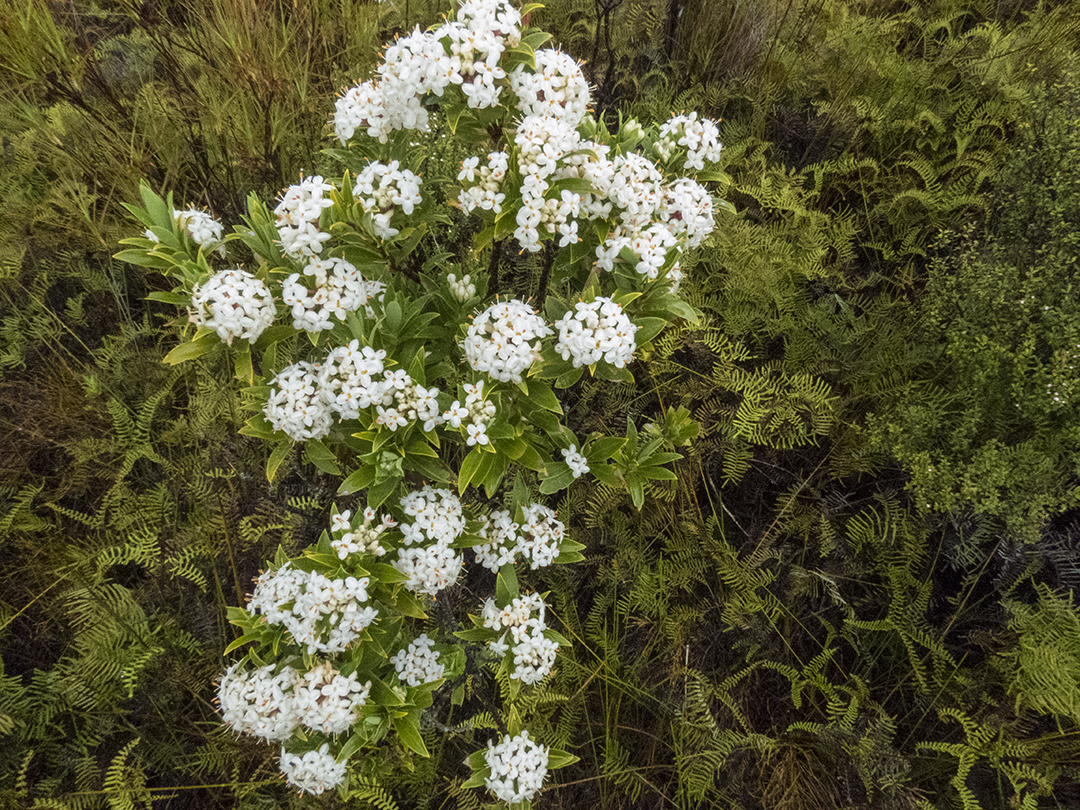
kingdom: Plantae
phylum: Tracheophyta
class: Magnoliopsida
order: Malvales
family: Thymelaeaceae
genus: Pimelea
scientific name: Pimelea longifolia
